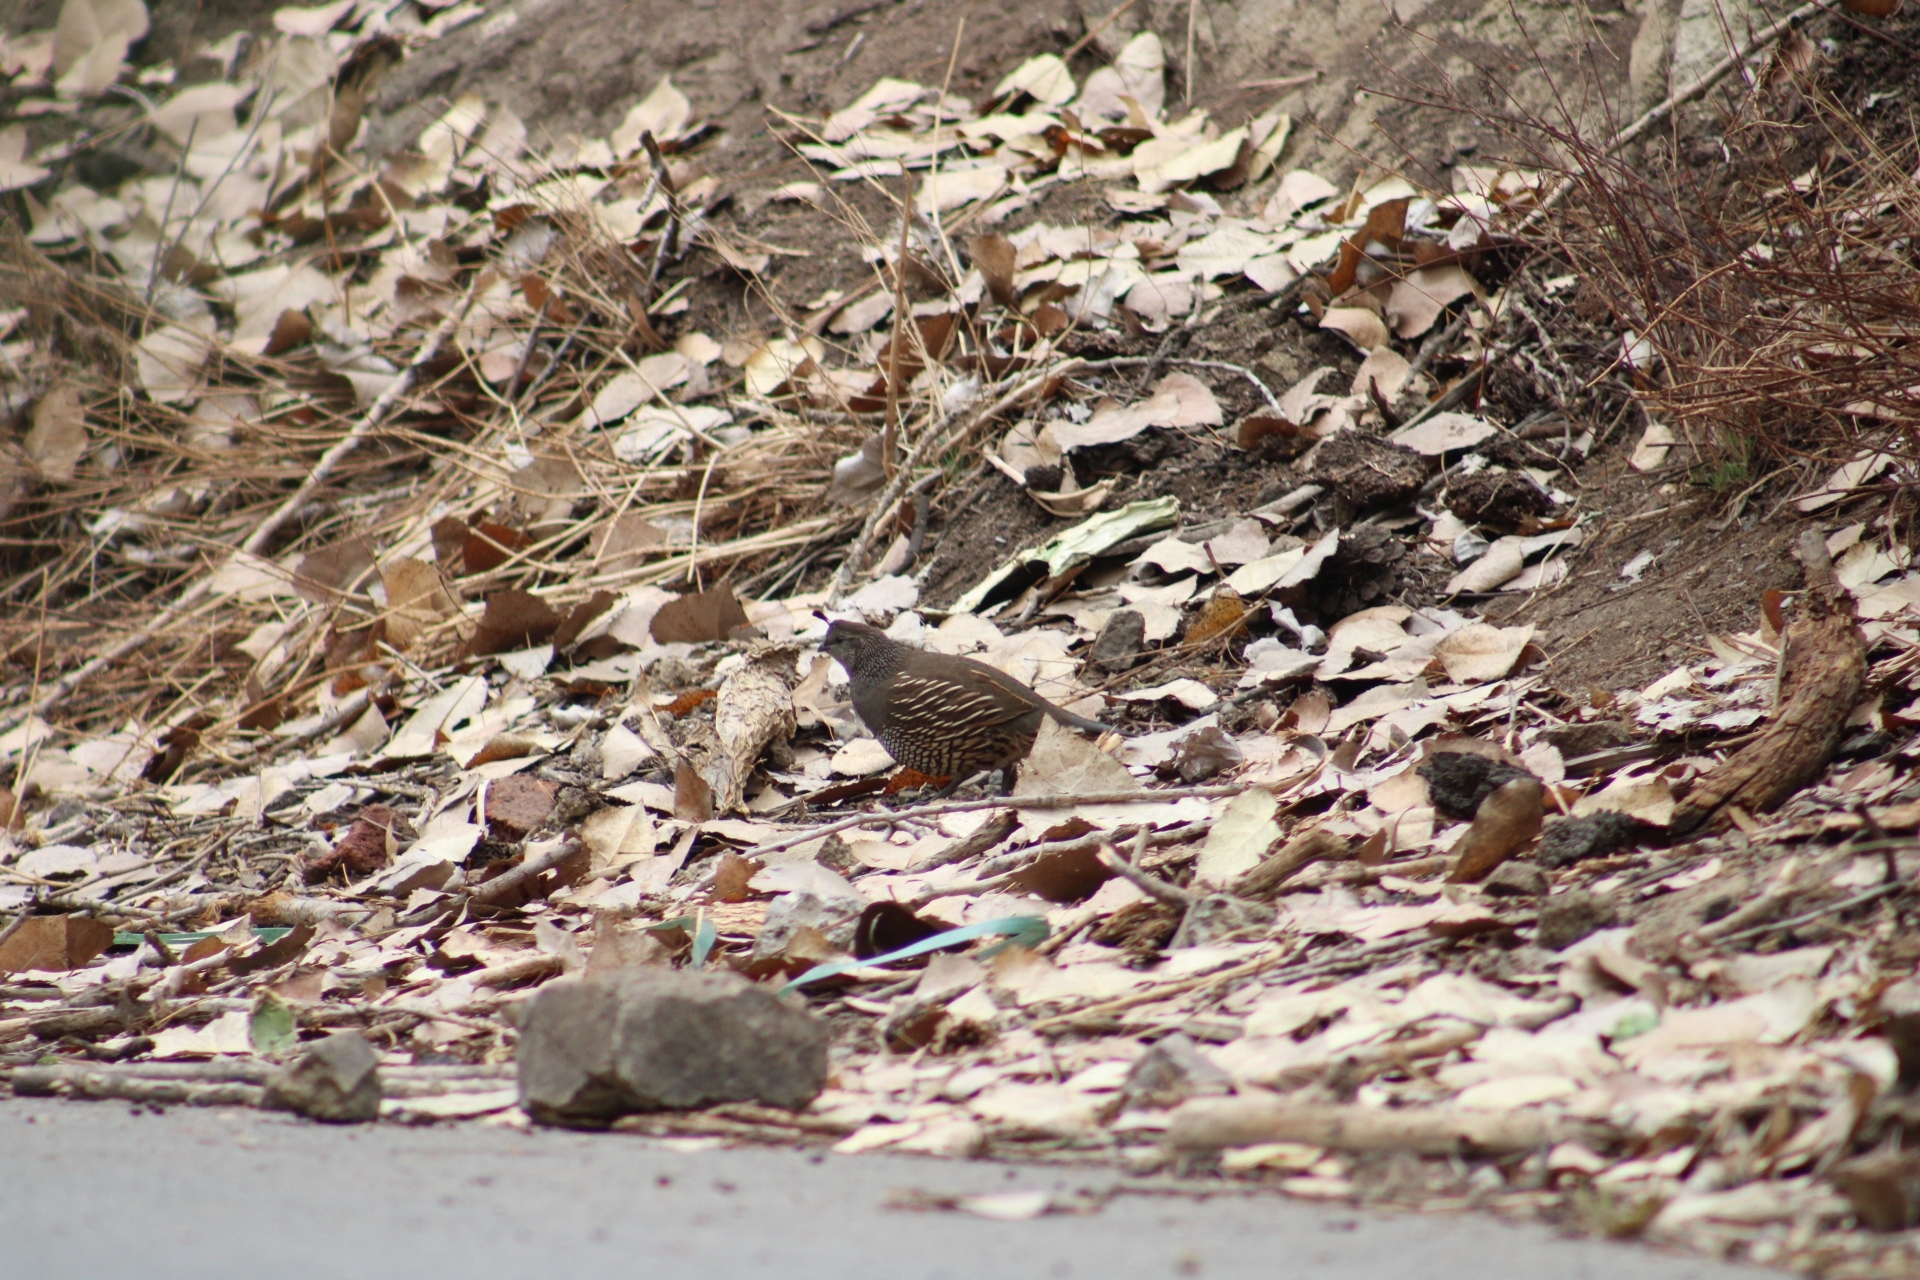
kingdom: Animalia
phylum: Chordata
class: Aves
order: Galliformes
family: Odontophoridae
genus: Callipepla
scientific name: Callipepla californica
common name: California quail
